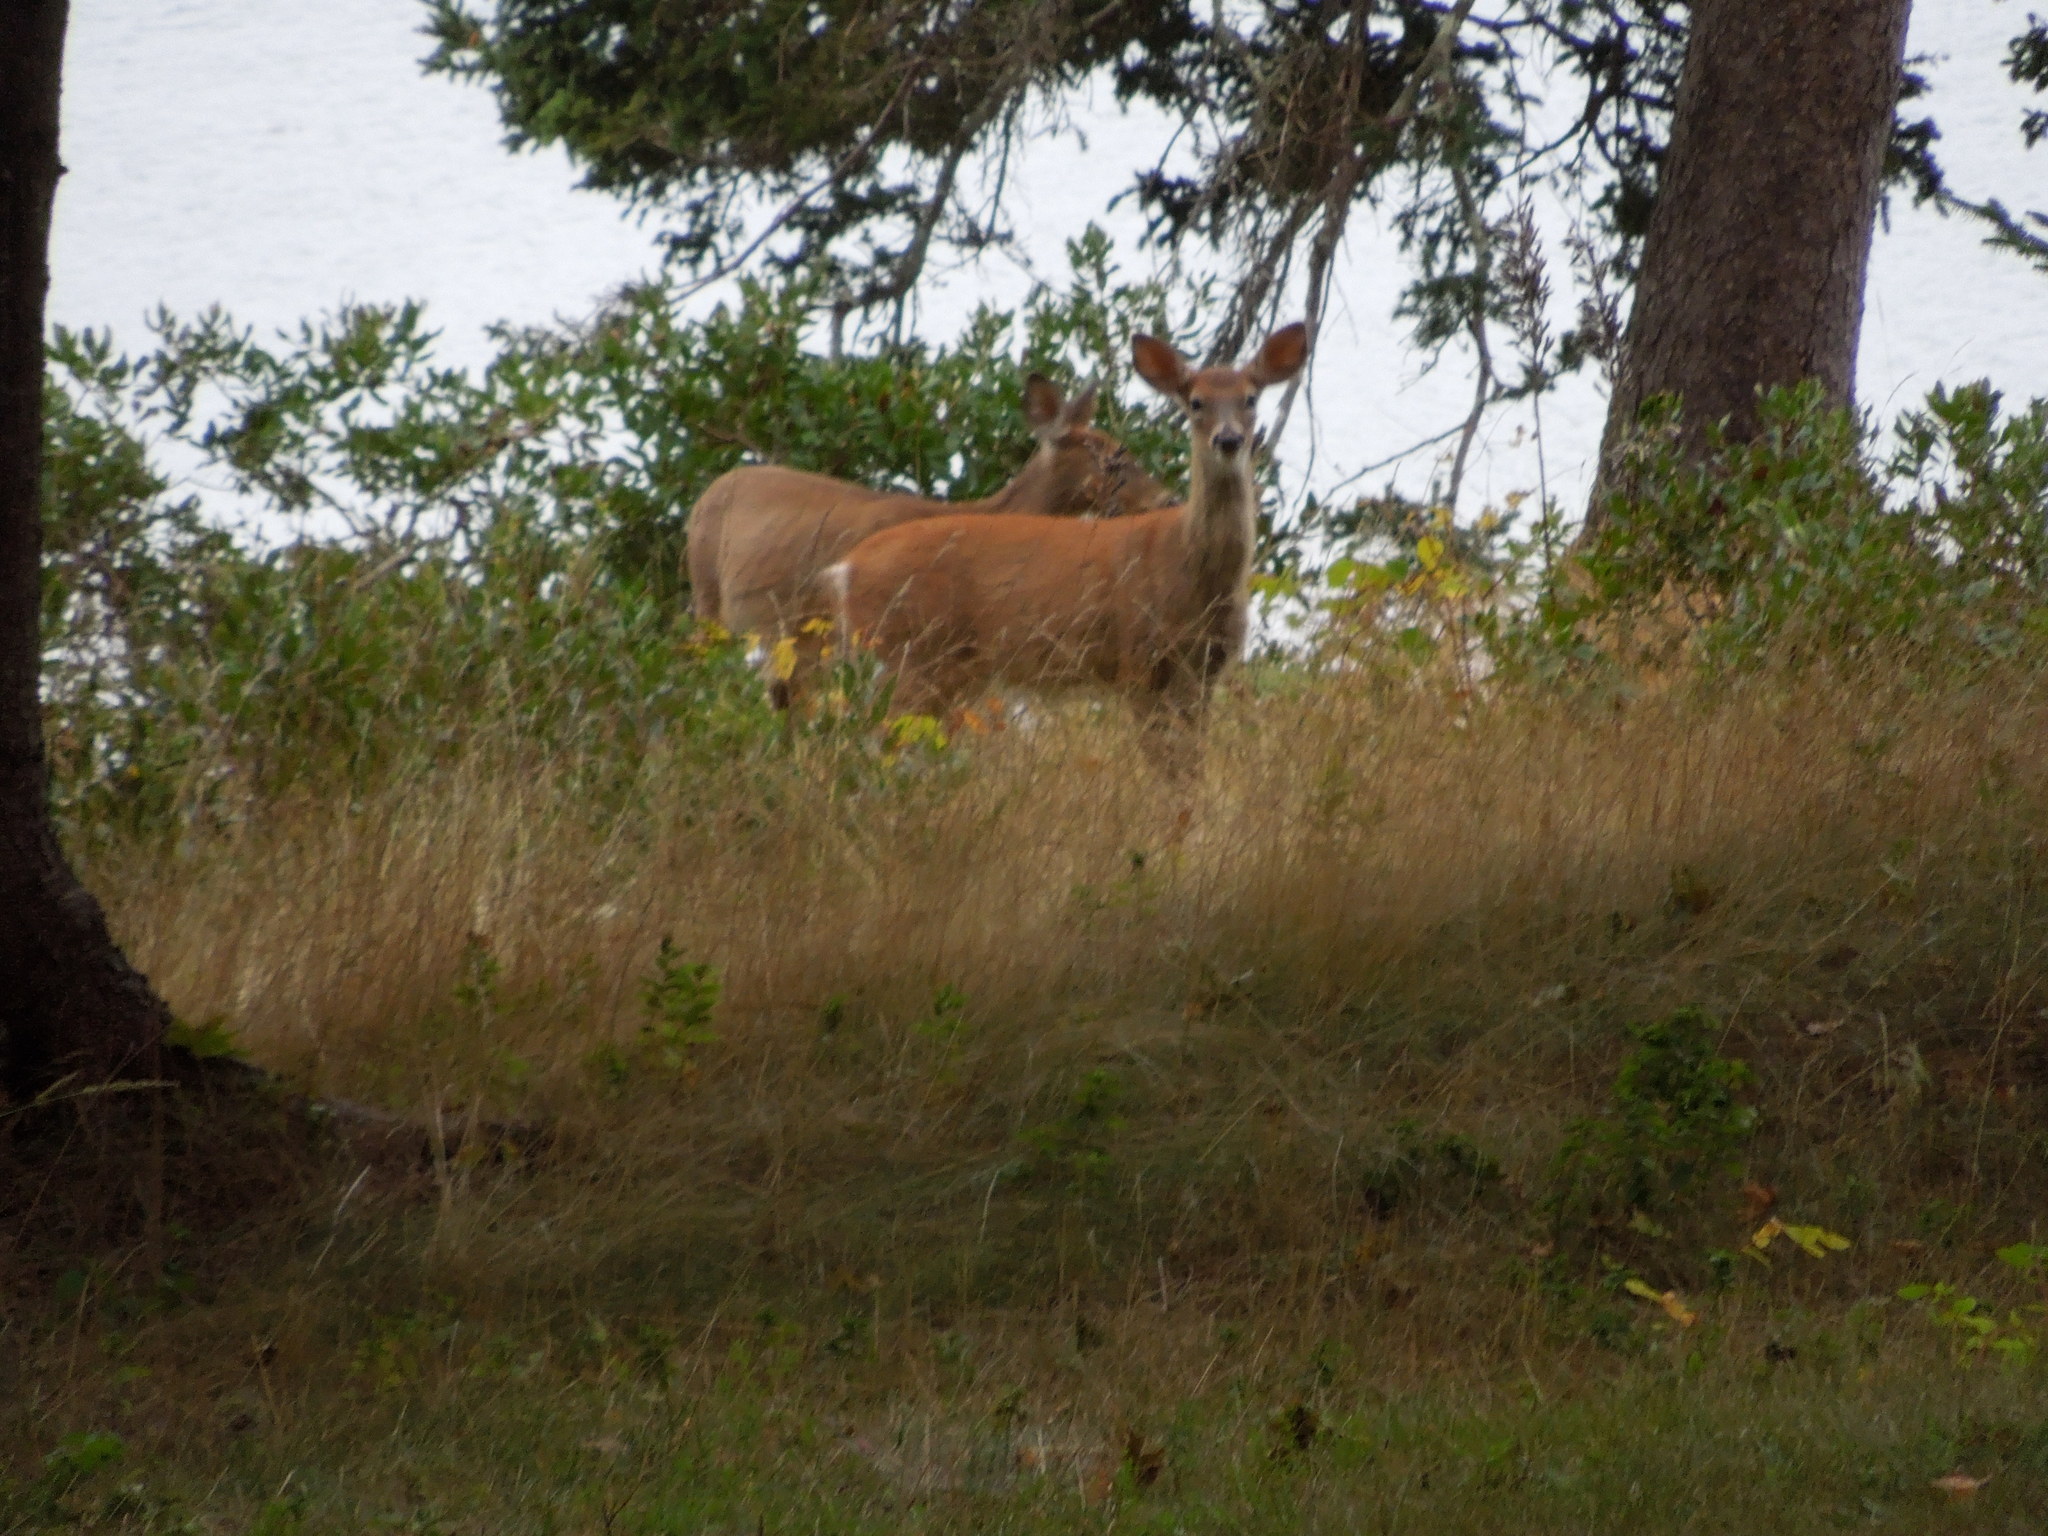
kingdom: Animalia
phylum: Chordata
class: Mammalia
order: Artiodactyla
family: Cervidae
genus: Odocoileus
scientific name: Odocoileus virginianus
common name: White-tailed deer
